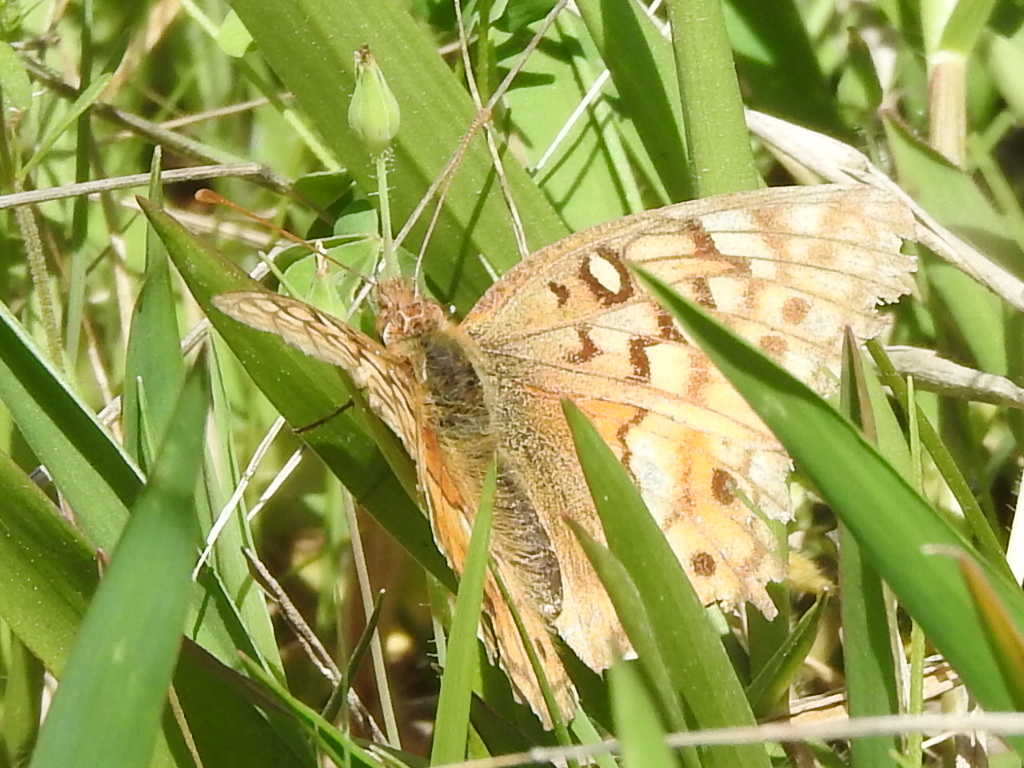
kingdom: Animalia
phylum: Arthropoda
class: Insecta
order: Lepidoptera
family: Nymphalidae
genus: Euptoieta
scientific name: Euptoieta claudia
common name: Variegated fritillary
